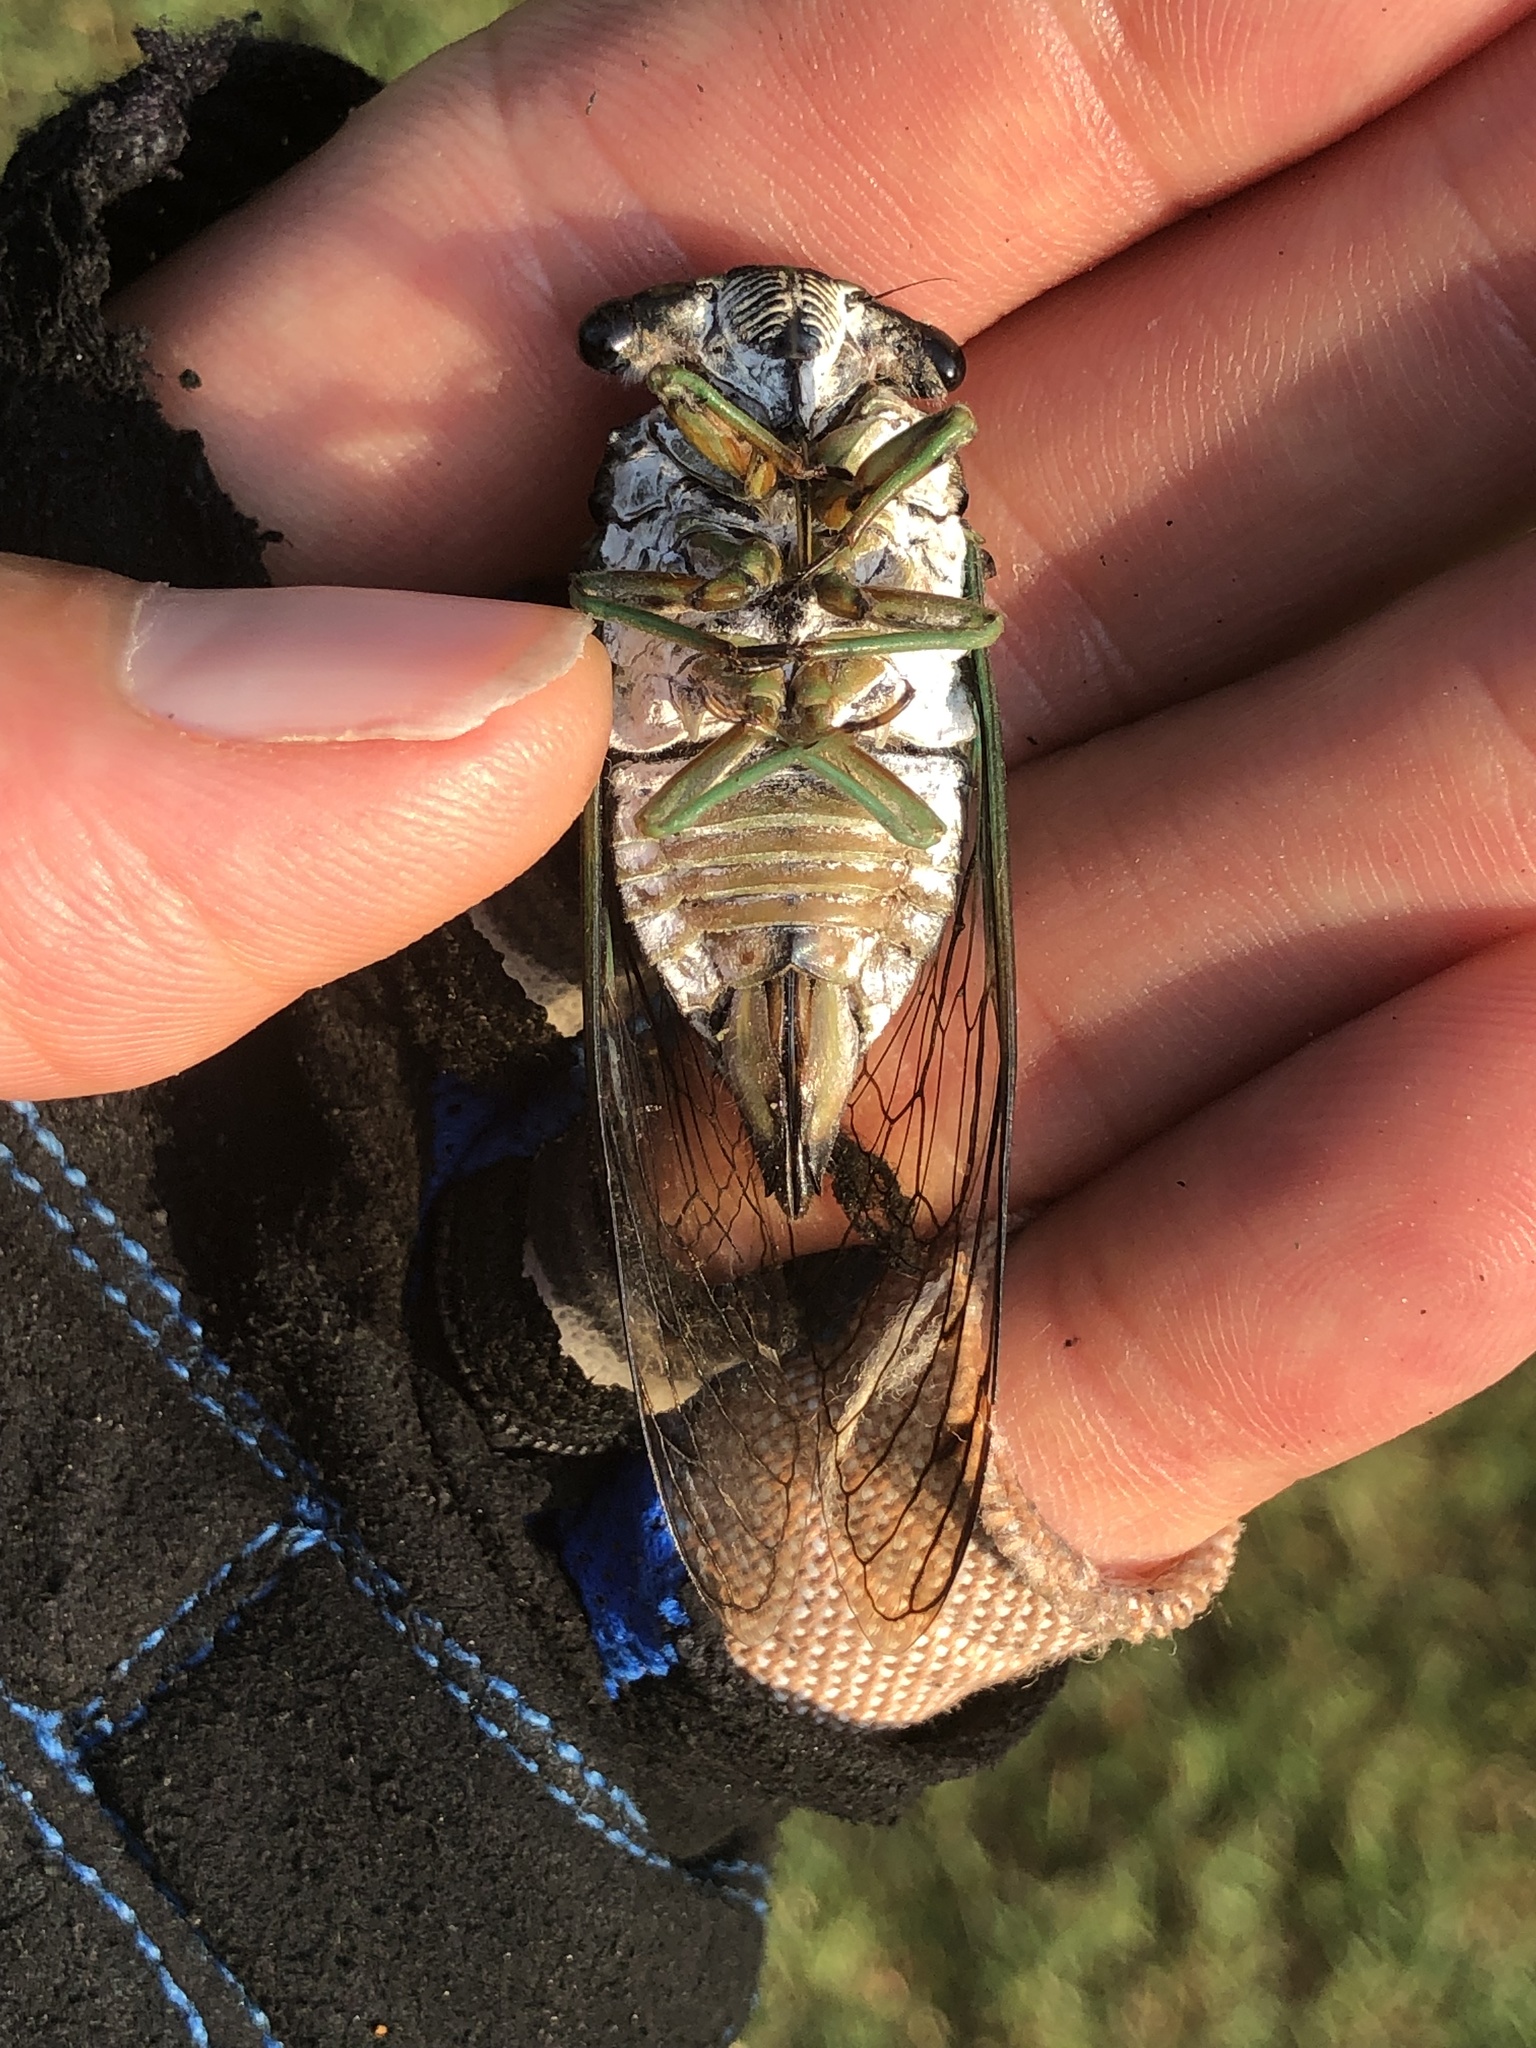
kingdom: Animalia
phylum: Arthropoda
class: Insecta
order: Hemiptera
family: Cicadidae
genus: Neotibicen
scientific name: Neotibicen tibicen
